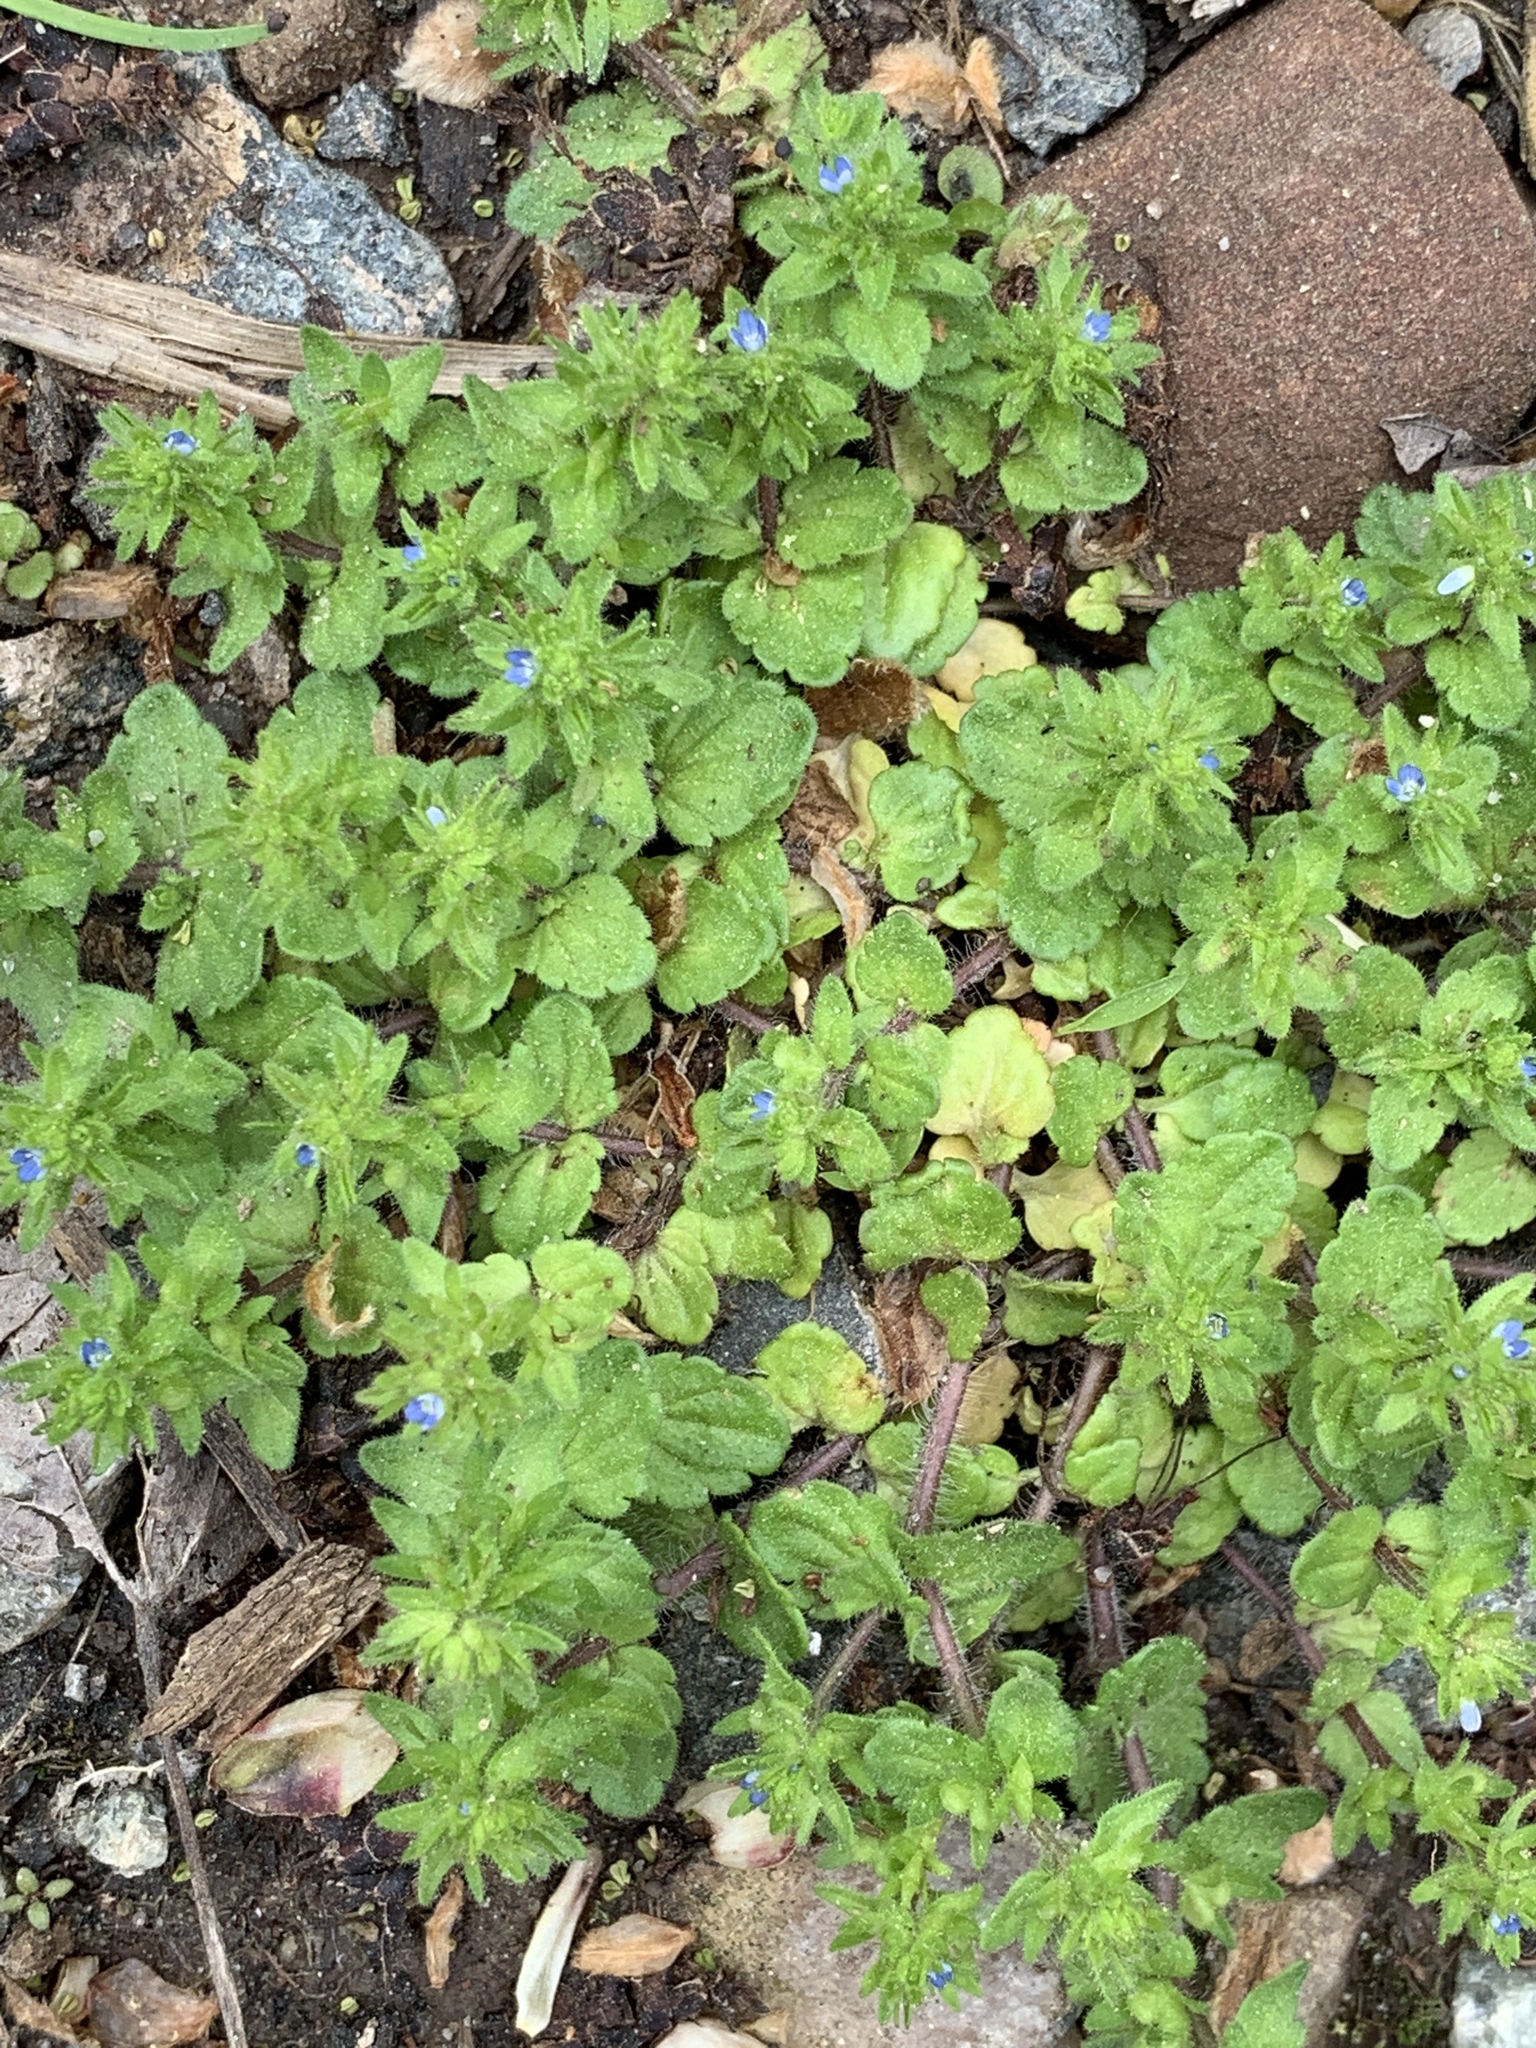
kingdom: Plantae
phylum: Tracheophyta
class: Magnoliopsida
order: Lamiales
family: Plantaginaceae
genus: Veronica
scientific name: Veronica arvensis
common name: Corn speedwell
